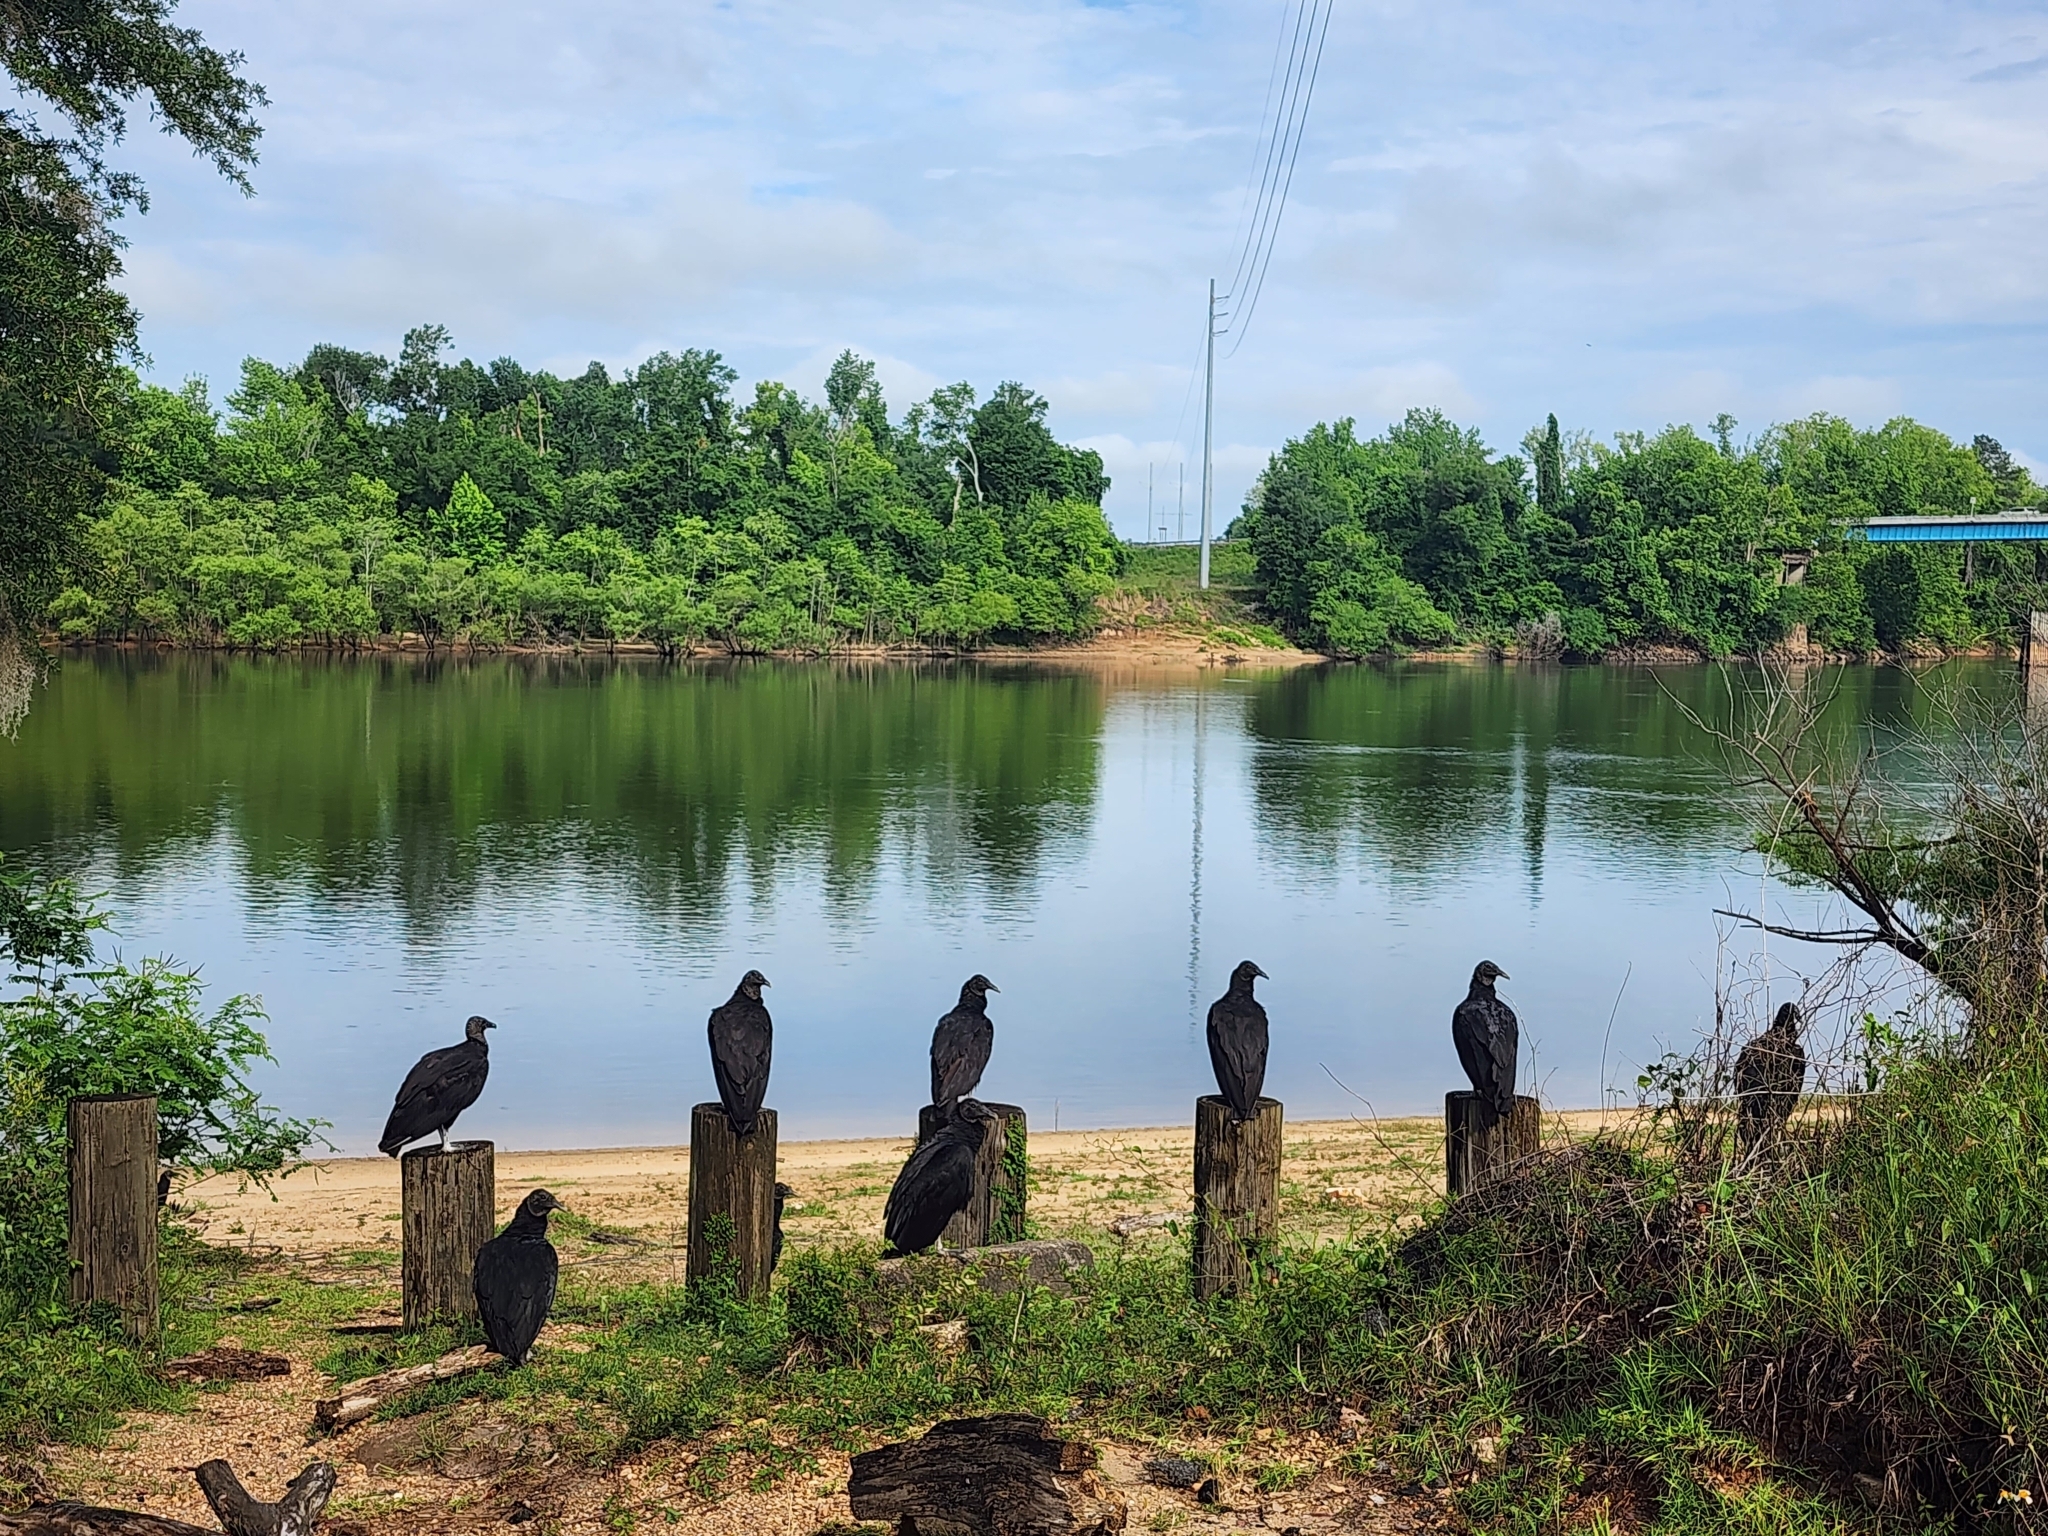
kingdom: Animalia
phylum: Chordata
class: Aves
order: Accipitriformes
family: Cathartidae
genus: Coragyps
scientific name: Coragyps atratus
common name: Black vulture
